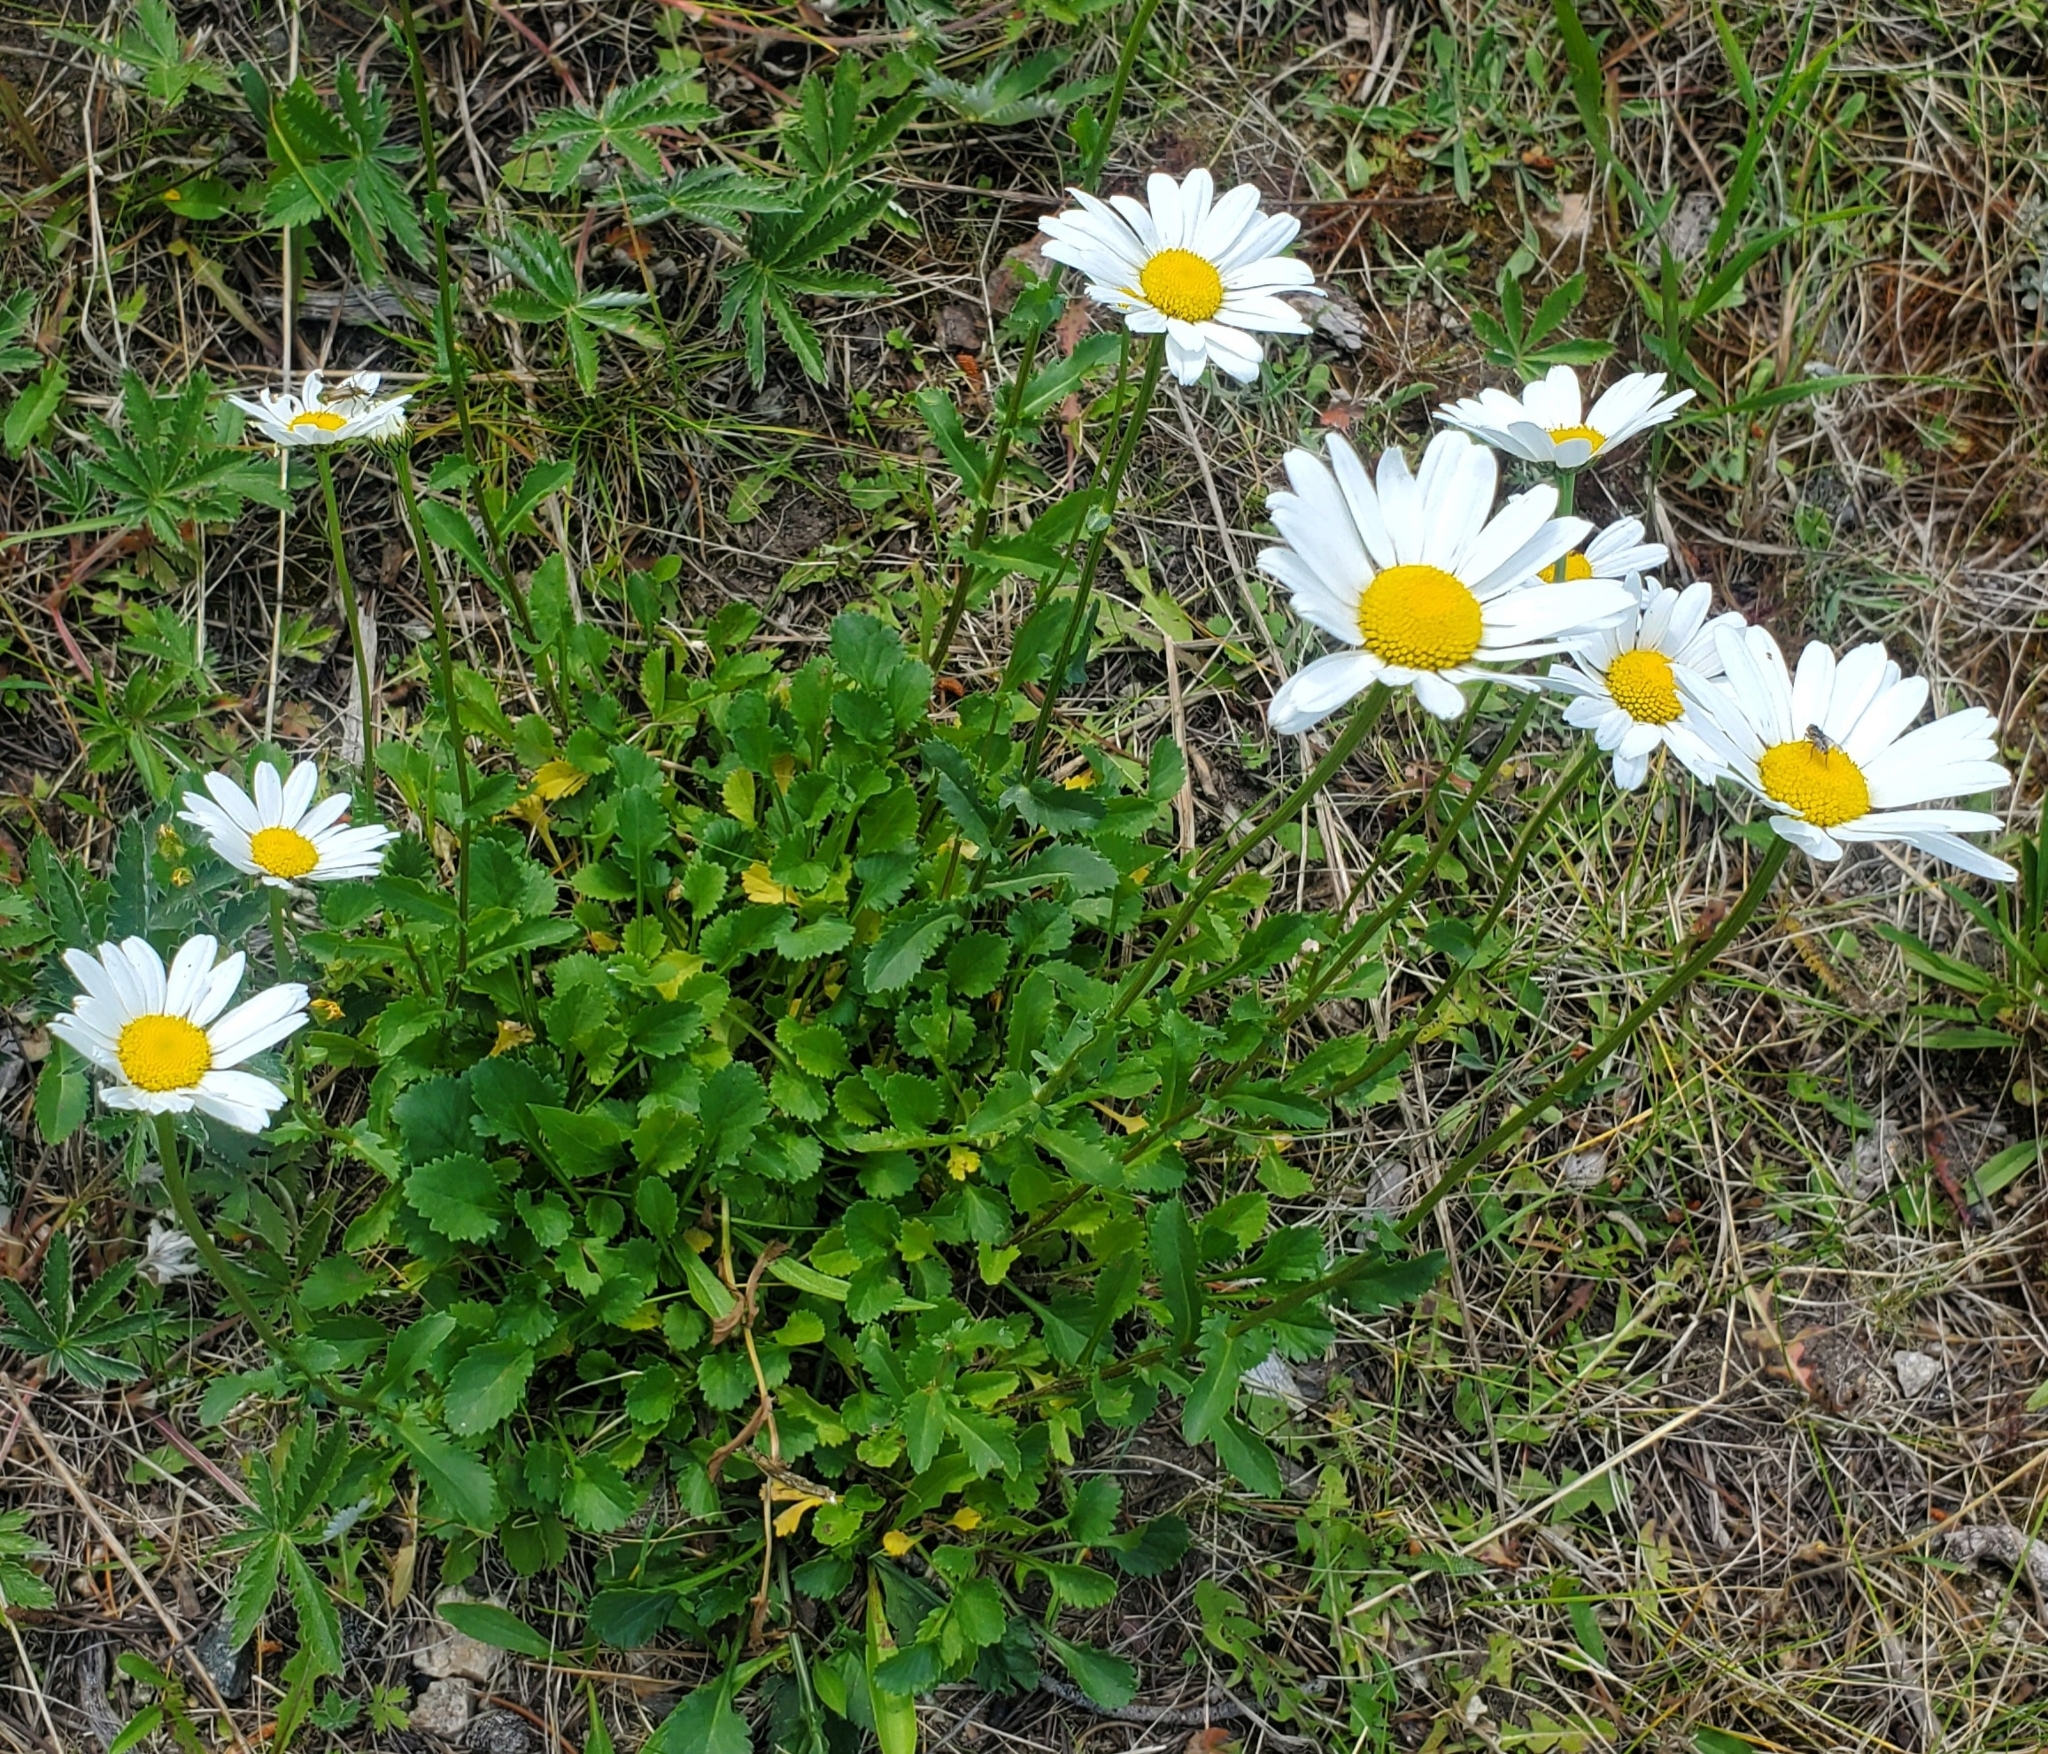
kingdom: Plantae
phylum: Tracheophyta
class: Magnoliopsida
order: Asterales
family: Asteraceae
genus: Leucanthemum
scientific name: Leucanthemum vulgare
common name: Oxeye daisy
